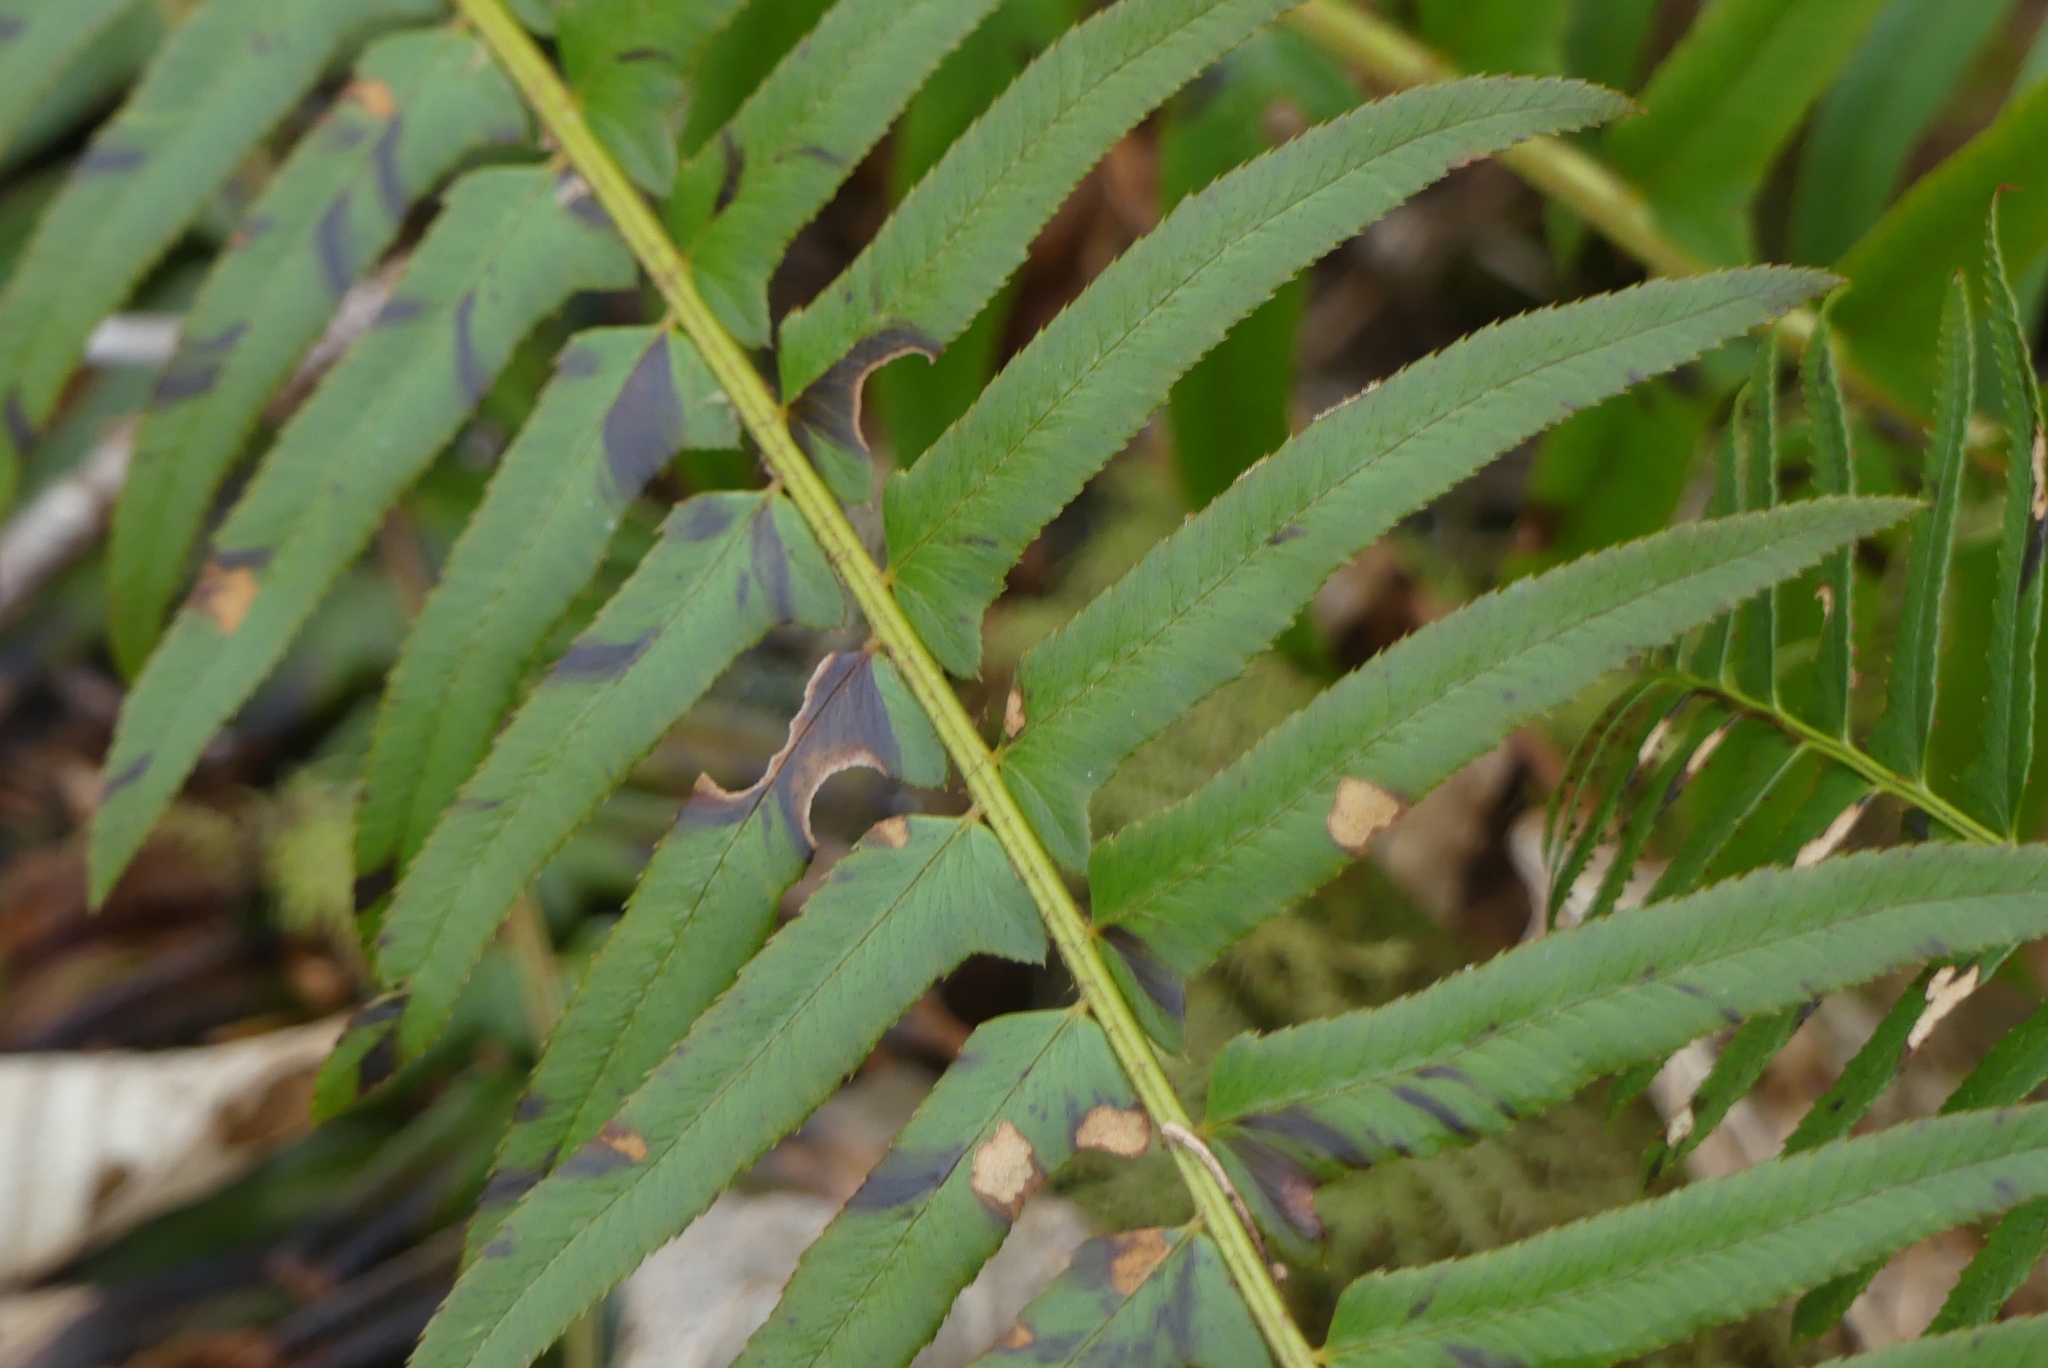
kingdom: Plantae
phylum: Tracheophyta
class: Polypodiopsida
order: Polypodiales
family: Dryopteridaceae
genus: Polystichum
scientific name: Polystichum munitum
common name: Western sword-fern
